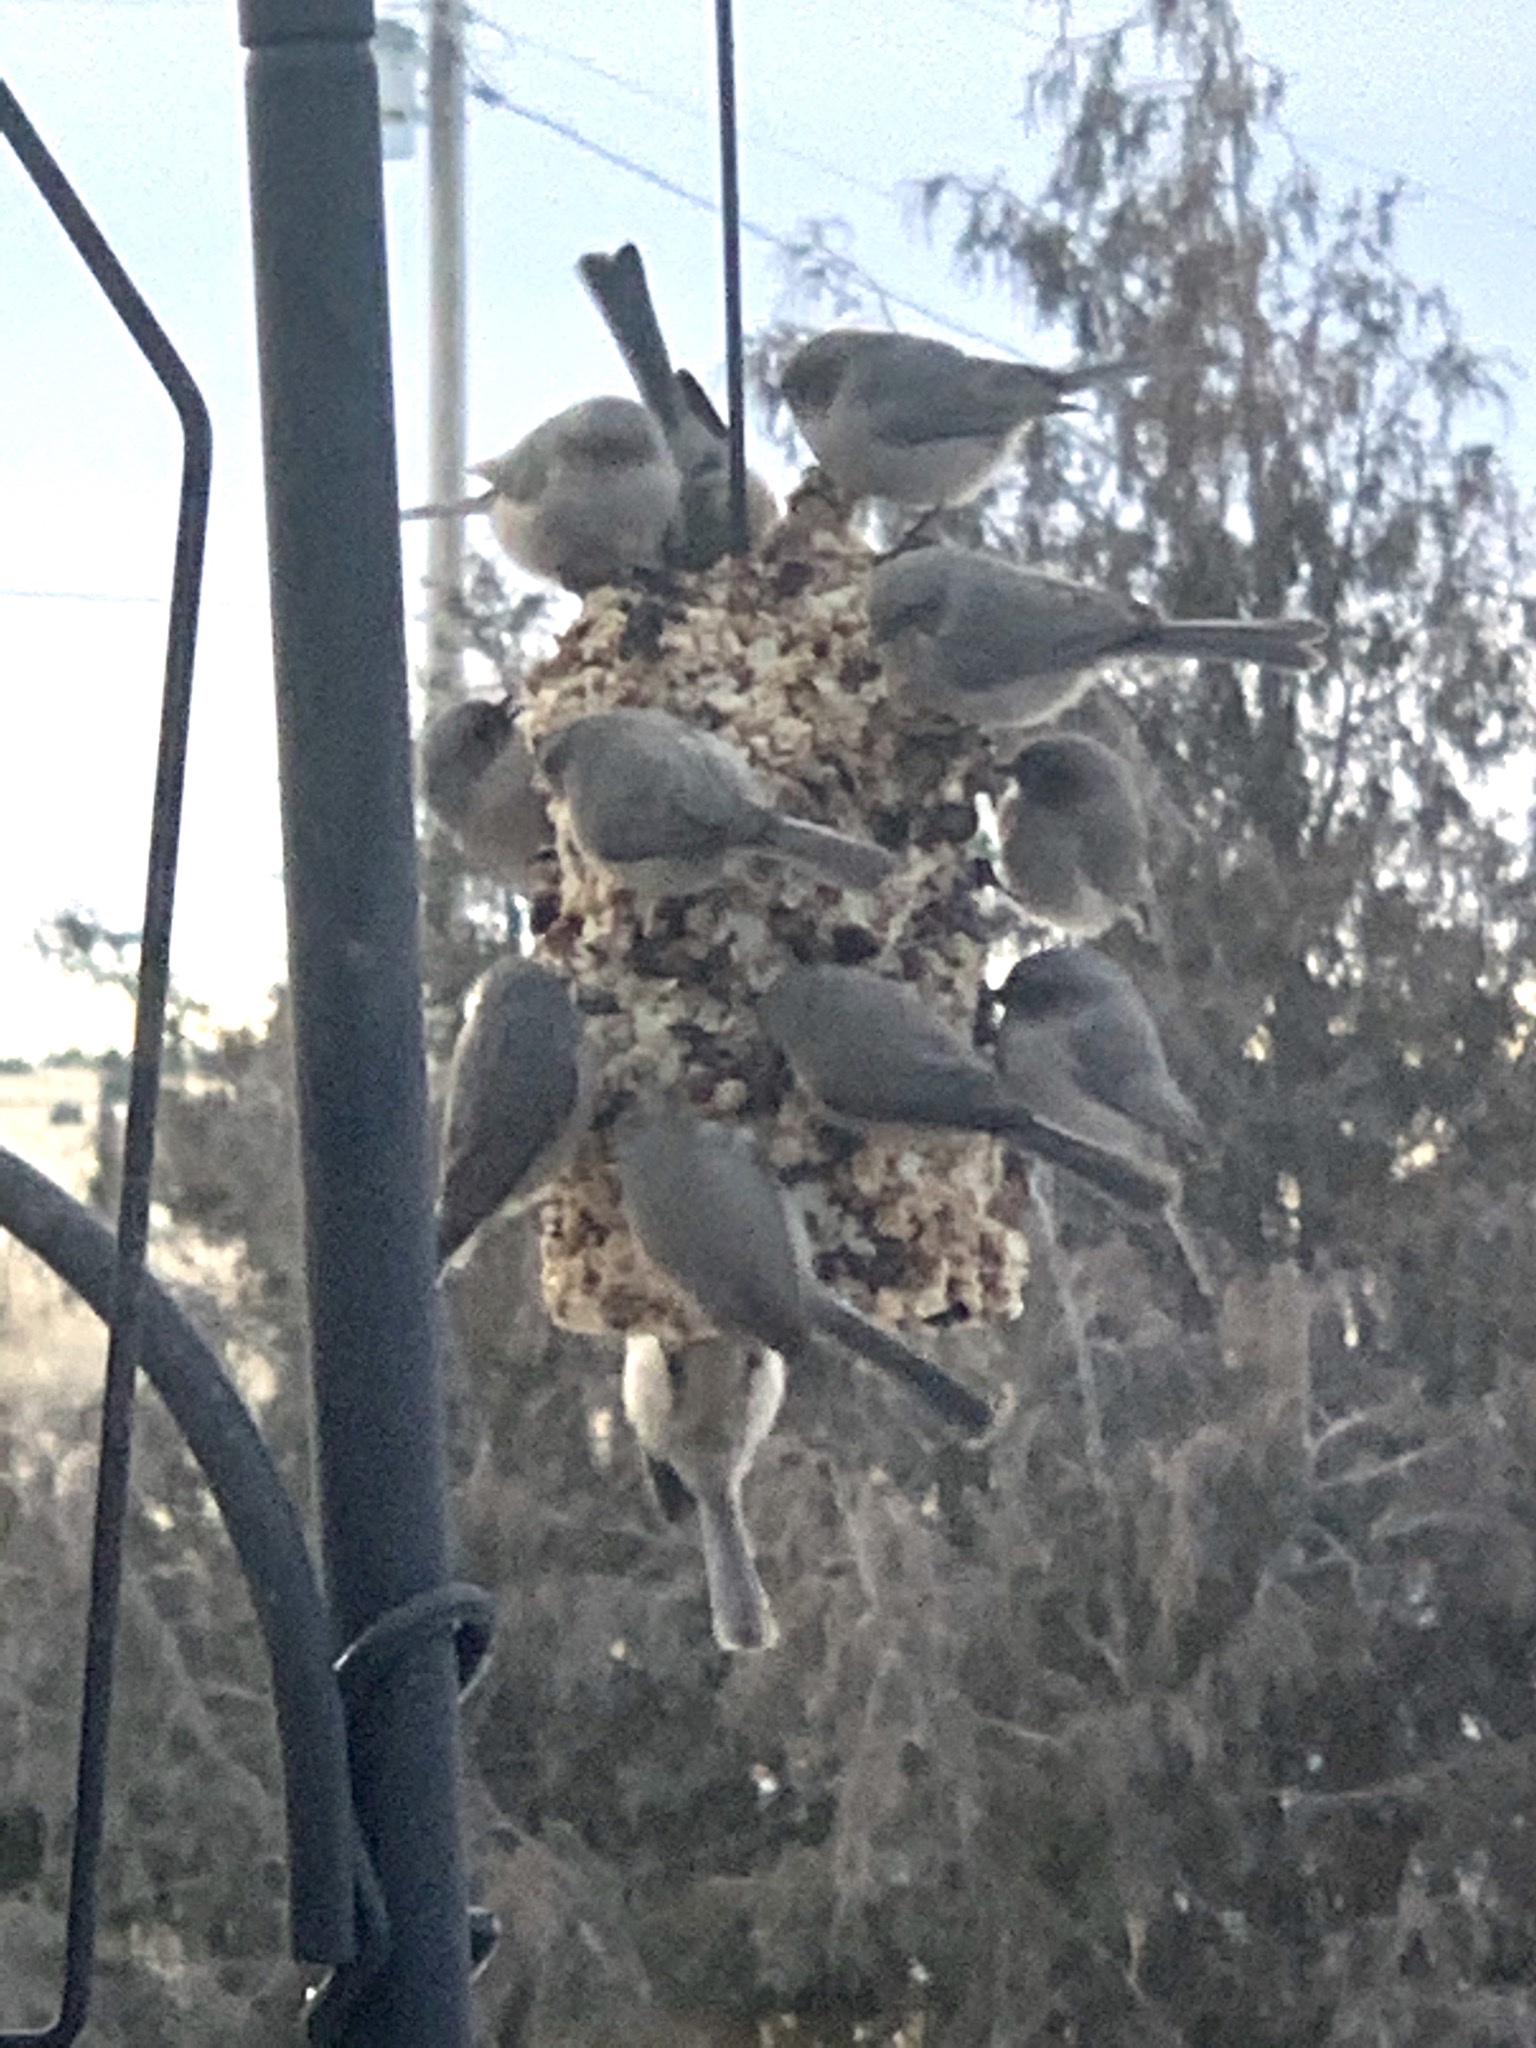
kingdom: Animalia
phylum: Chordata
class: Aves
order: Passeriformes
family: Aegithalidae
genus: Psaltriparus
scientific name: Psaltriparus minimus
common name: American bushtit
